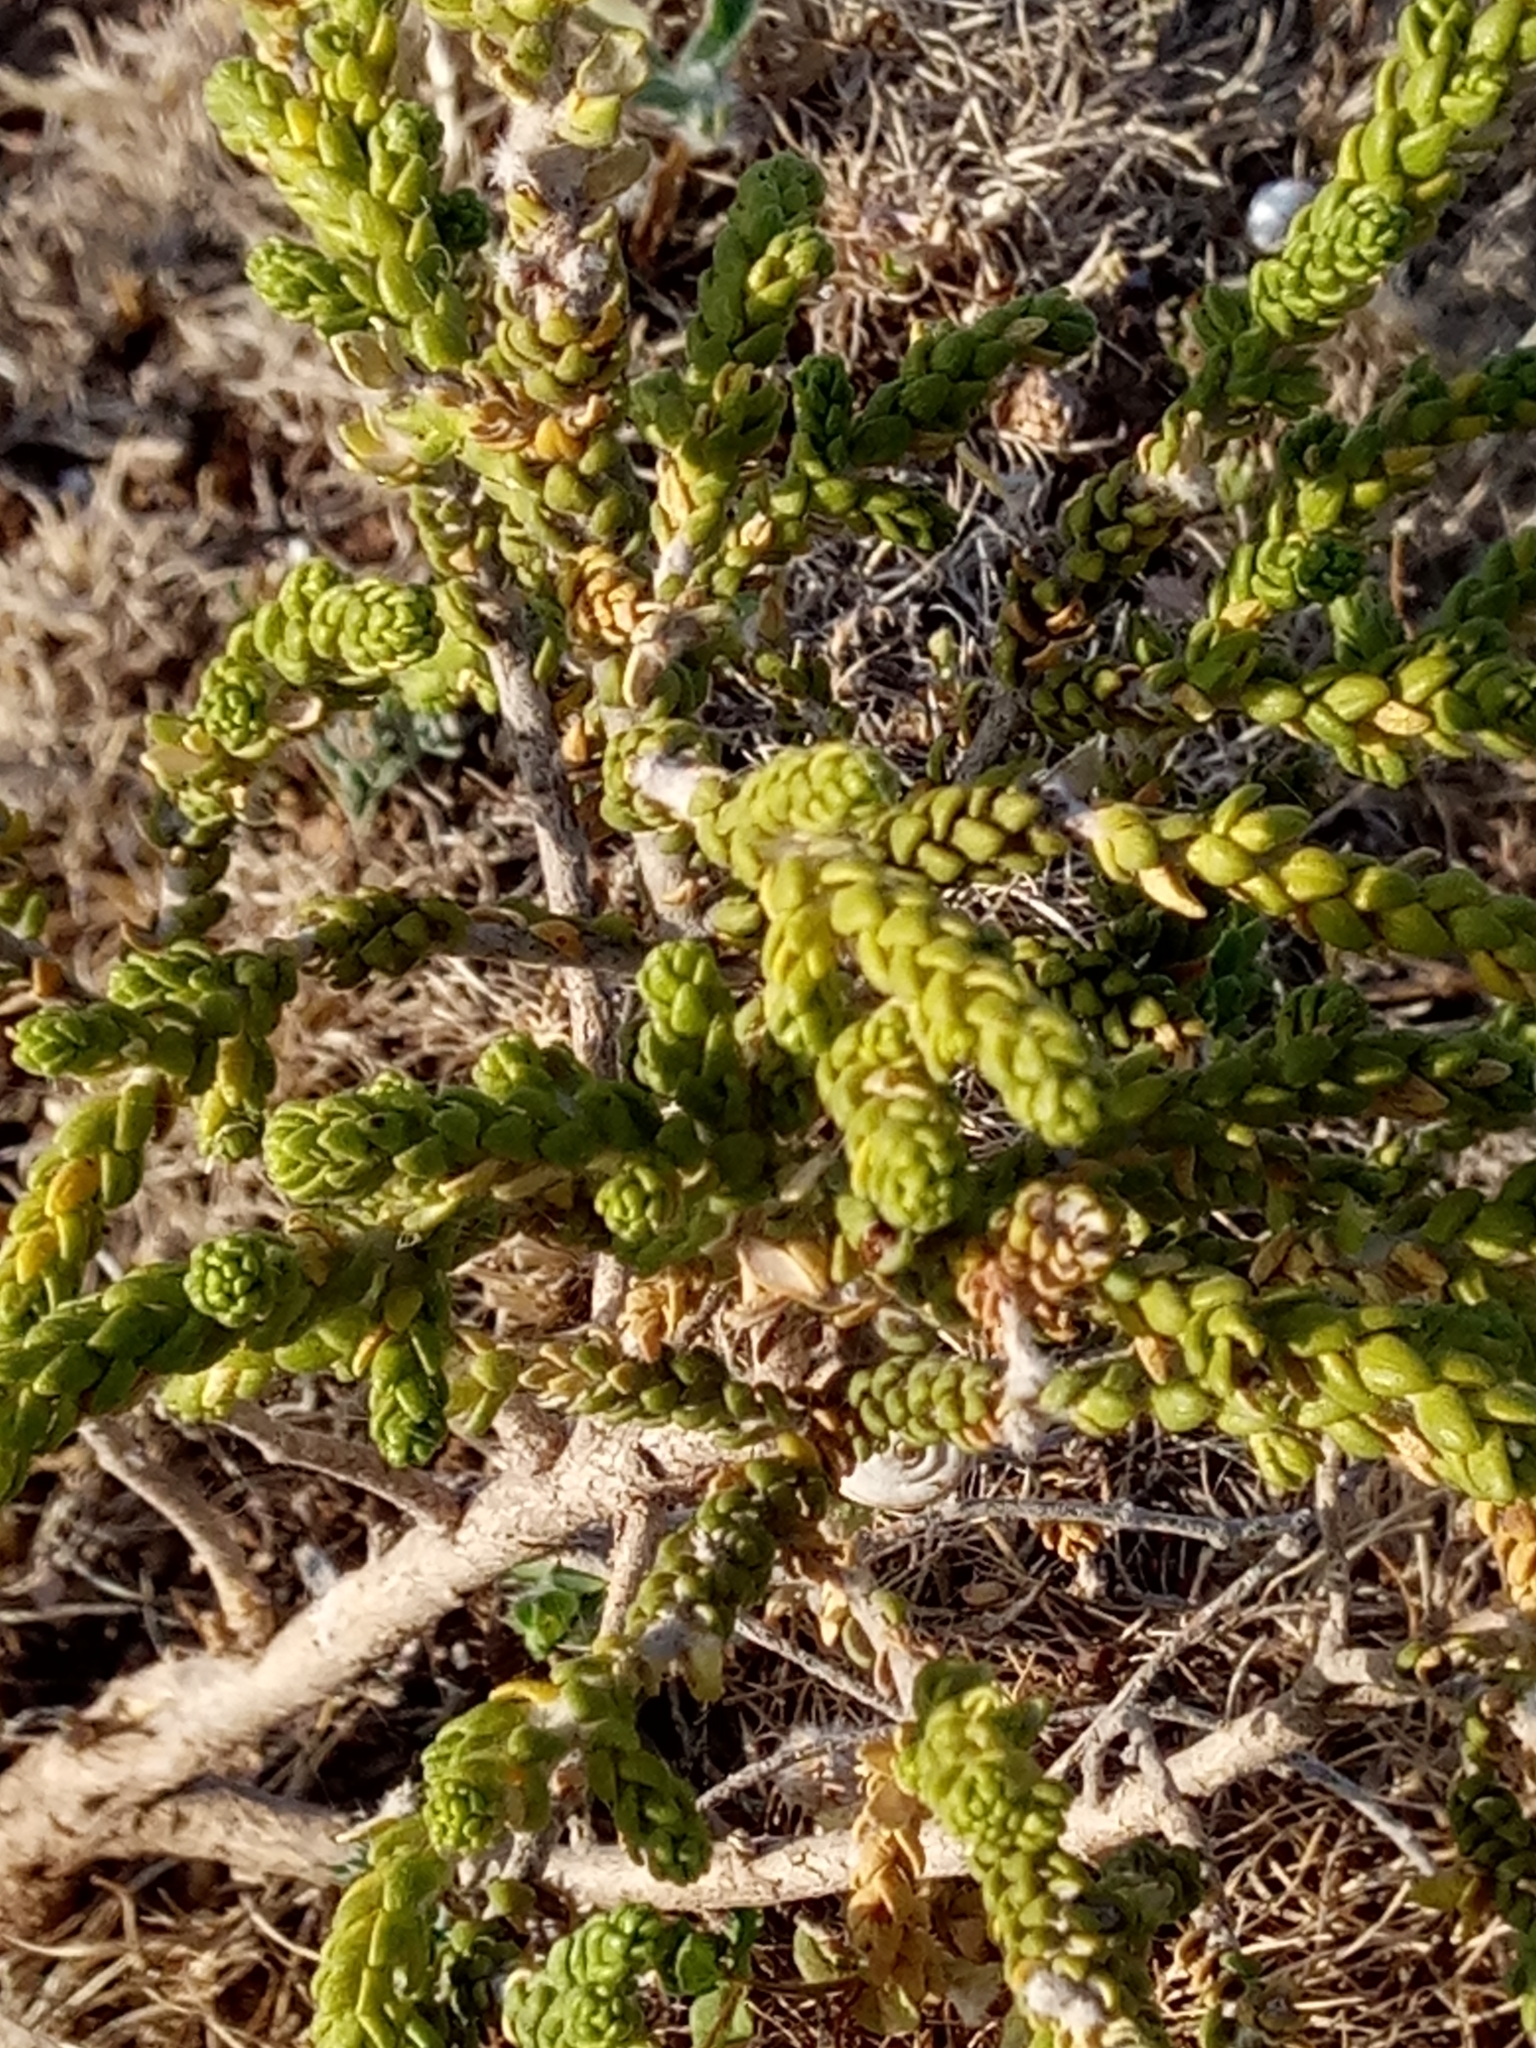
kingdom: Plantae
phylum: Tracheophyta
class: Magnoliopsida
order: Malvales
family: Thymelaeaceae
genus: Thymelaea
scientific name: Thymelaea hirsuta
